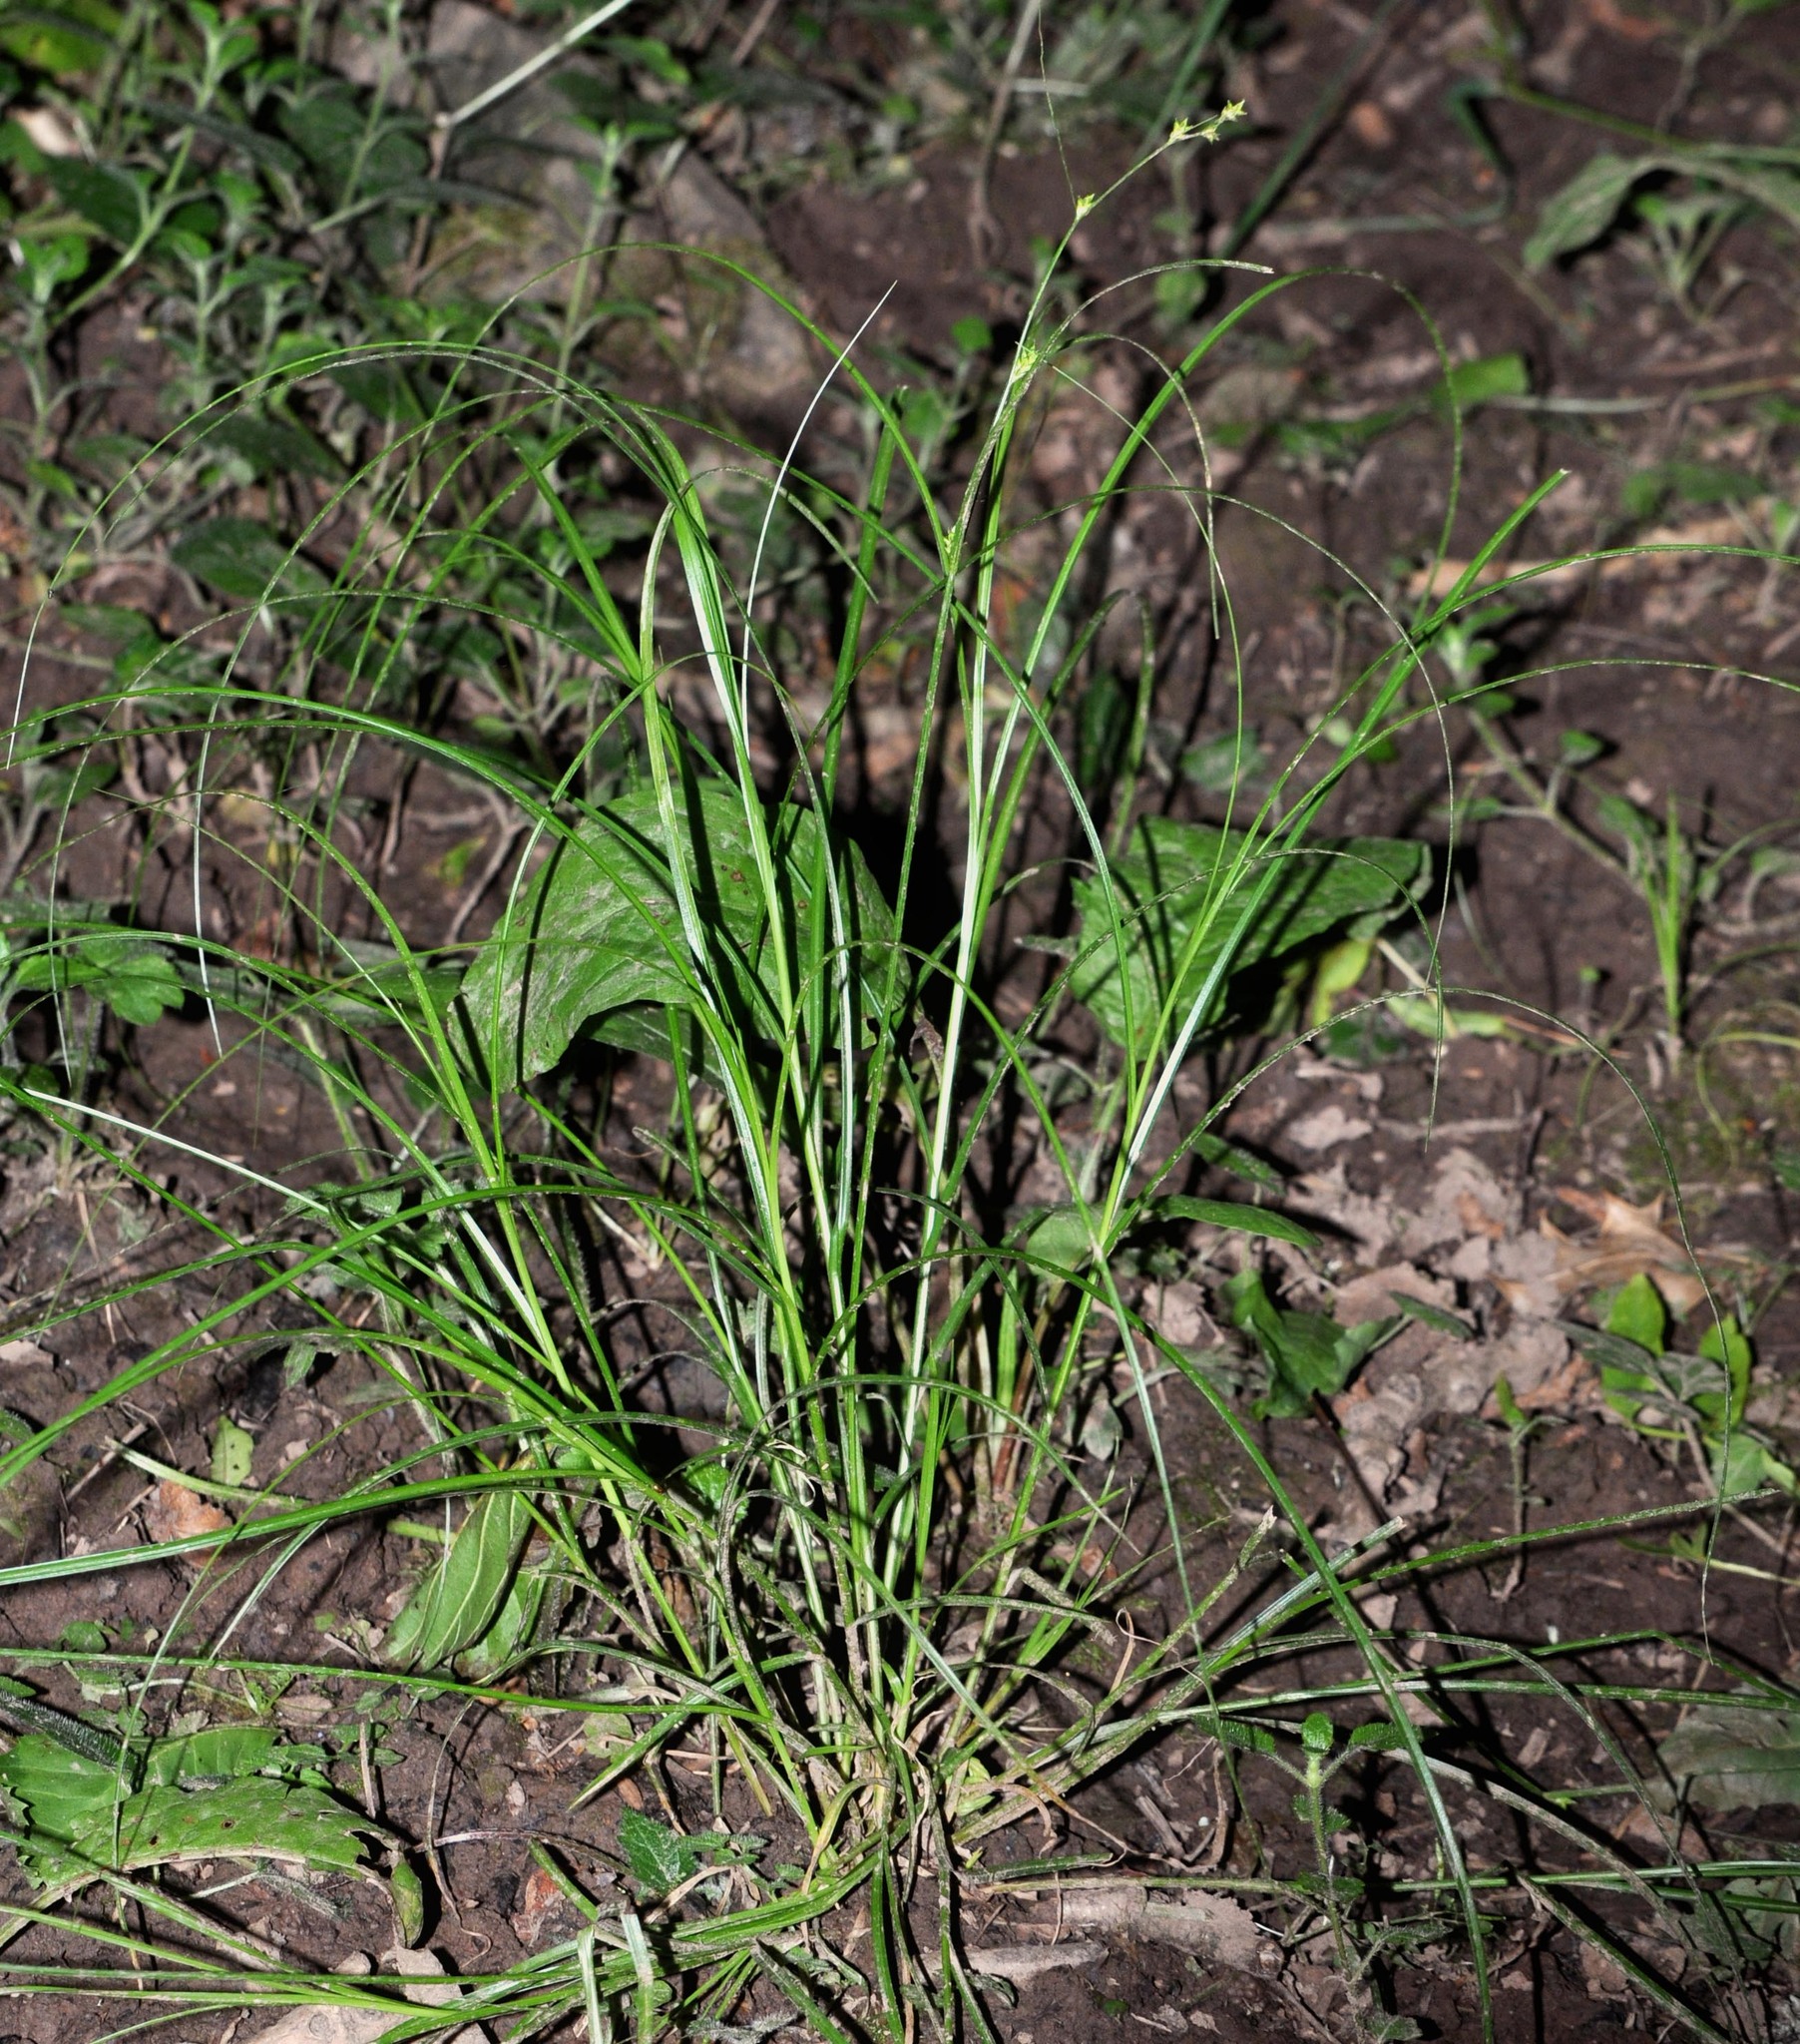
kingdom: Plantae
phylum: Tracheophyta
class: Liliopsida
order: Poales
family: Cyperaceae
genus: Carex
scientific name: Carex remota
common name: Remote sedge
